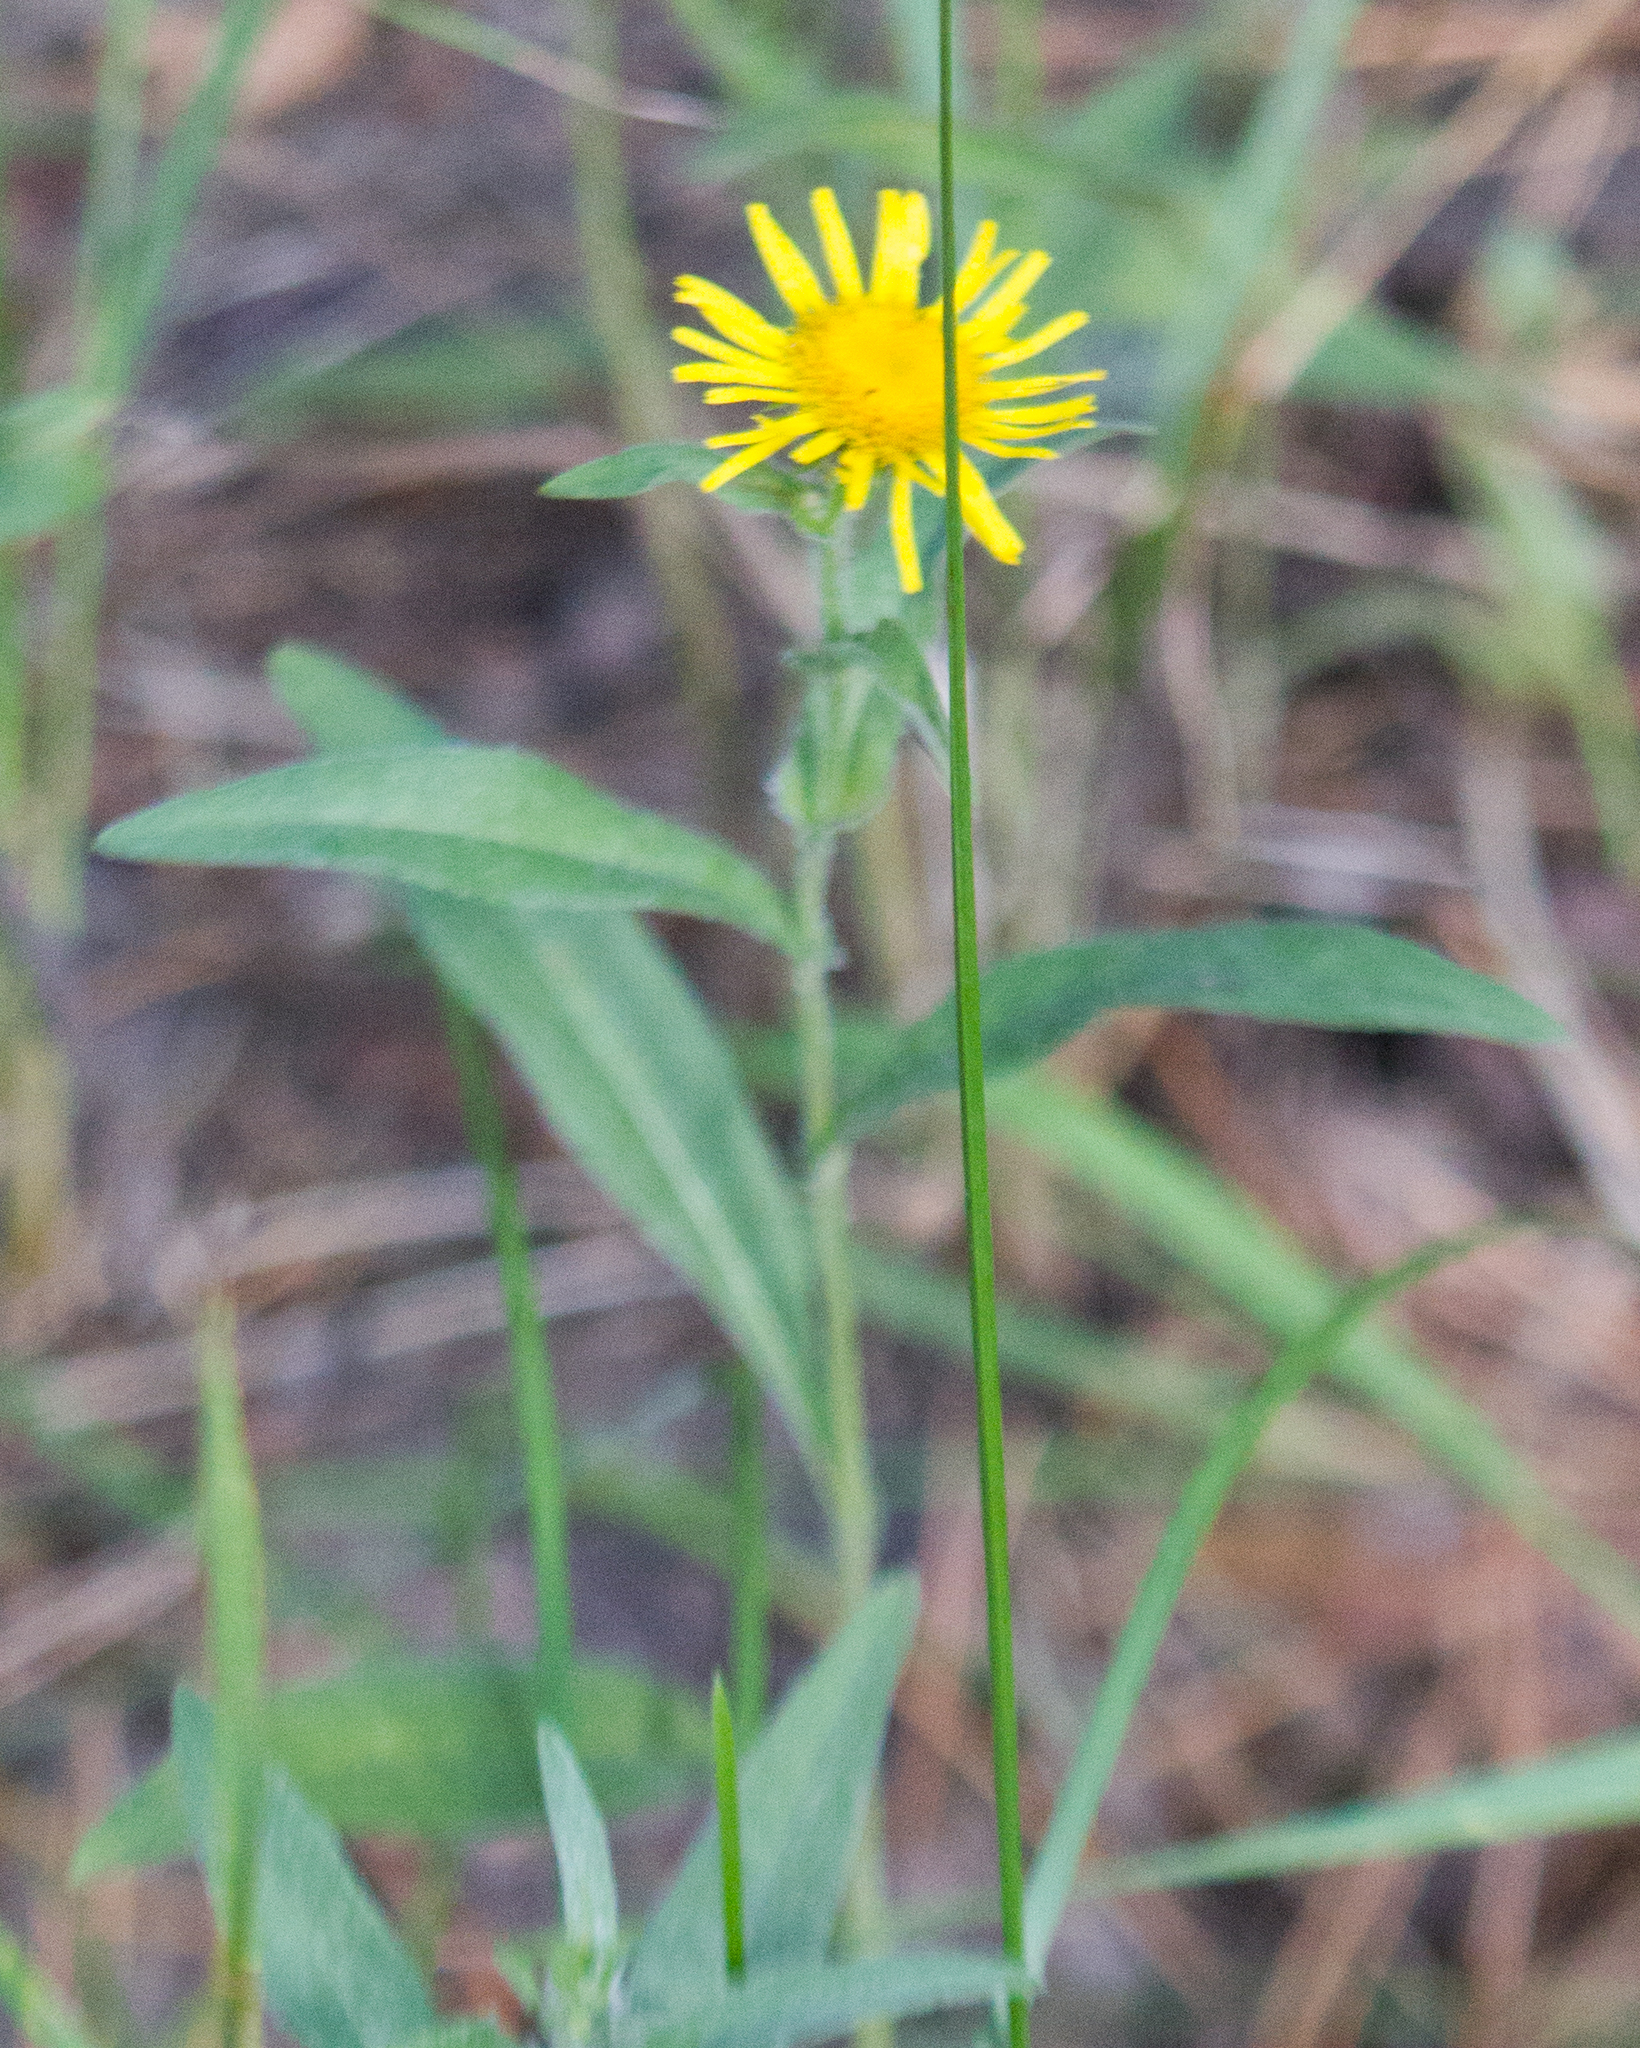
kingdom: Plantae
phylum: Tracheophyta
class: Magnoliopsida
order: Asterales
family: Asteraceae
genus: Pentanema
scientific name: Pentanema britannicum
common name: British elecampane
